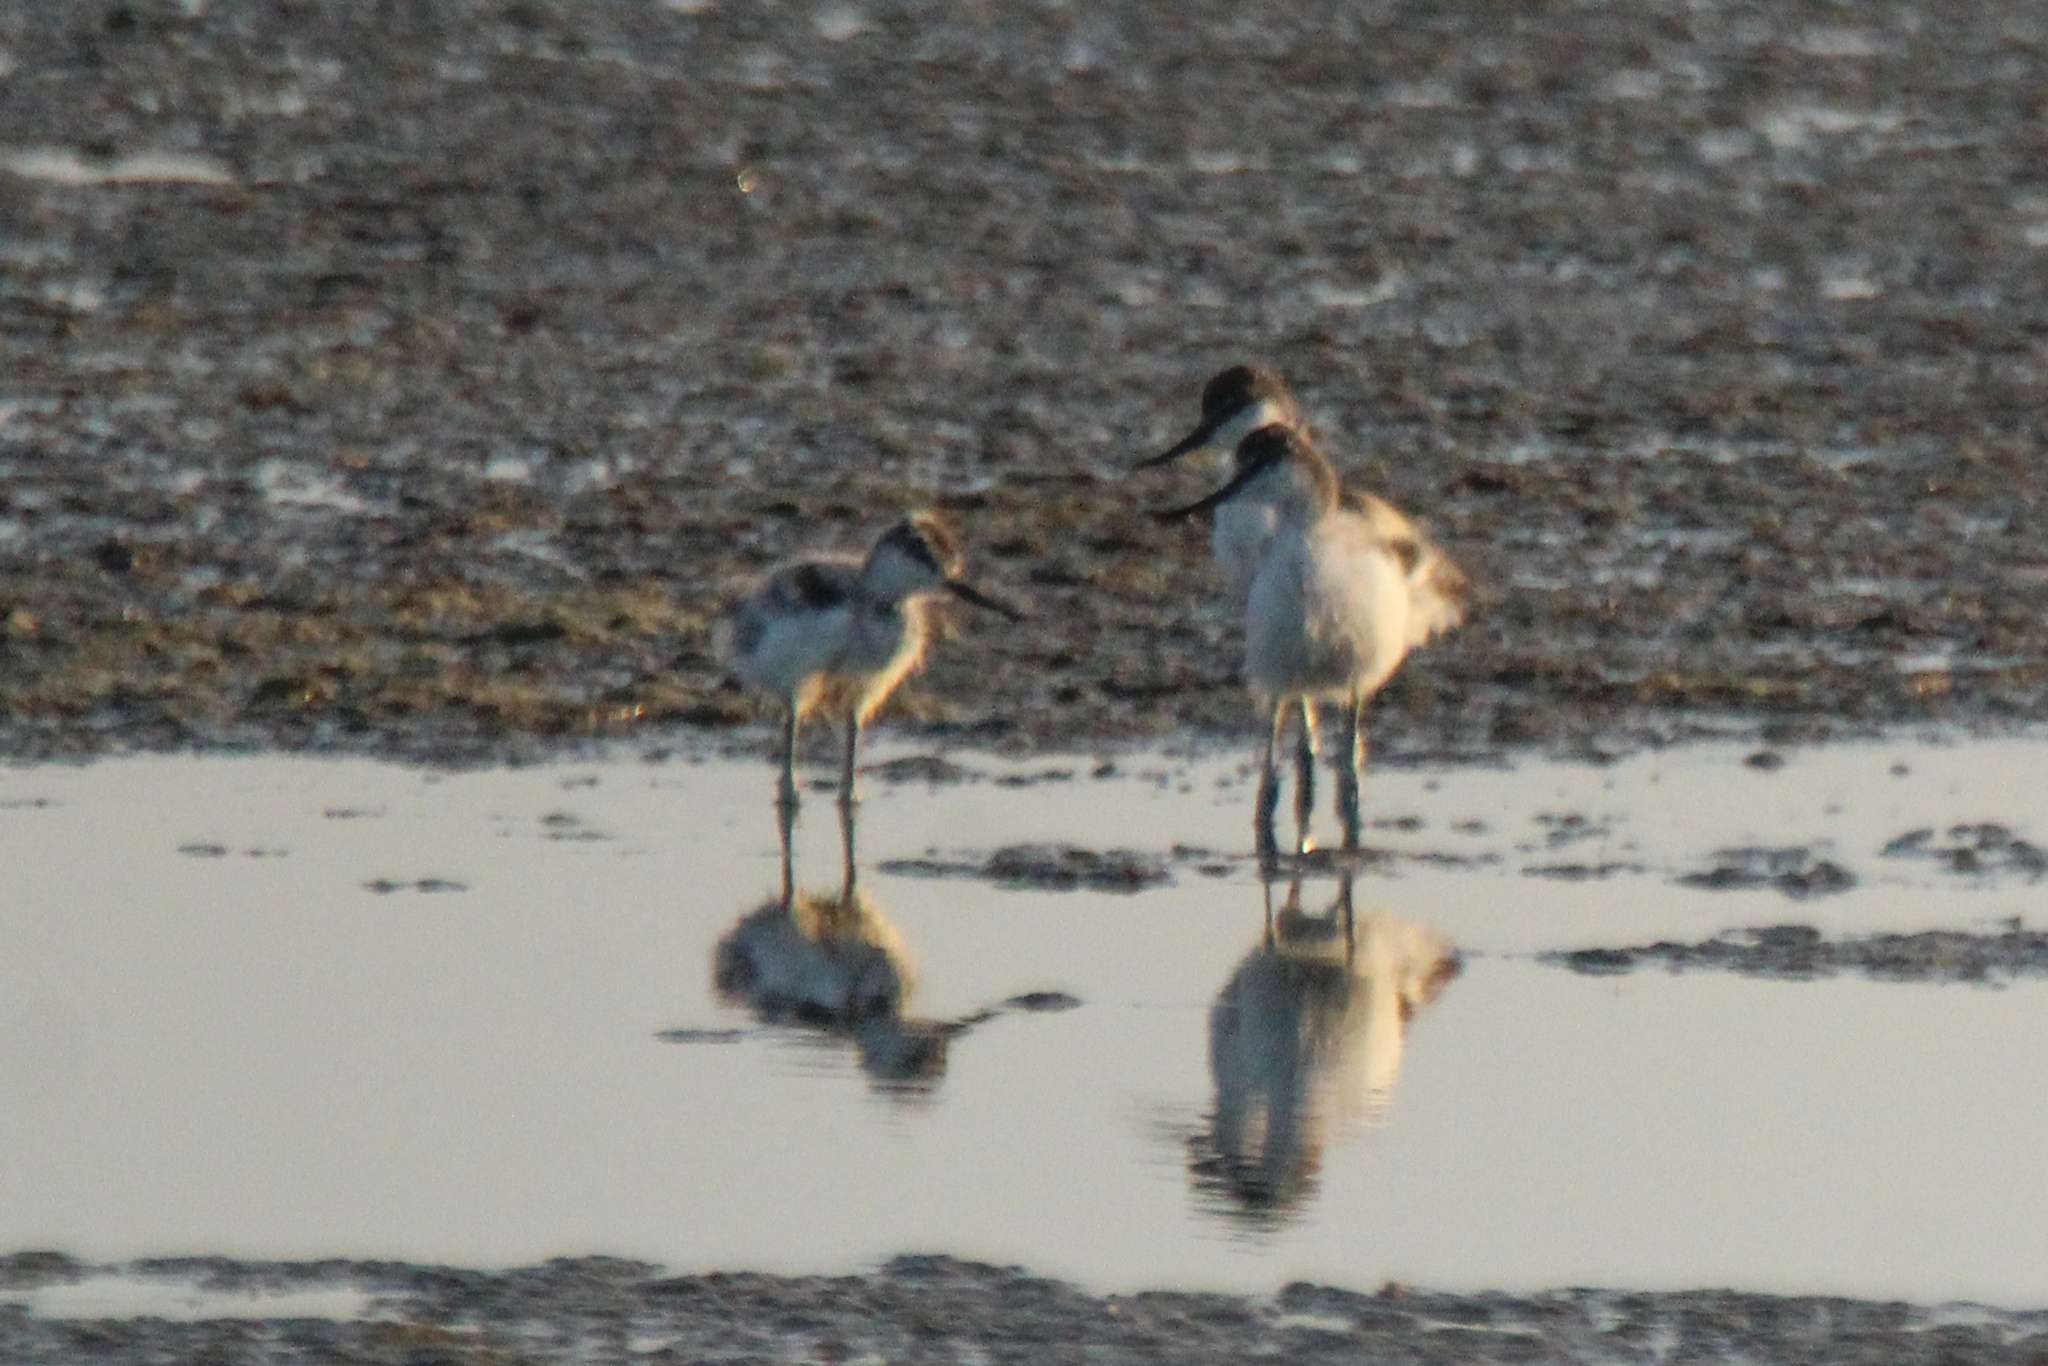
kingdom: Animalia
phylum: Chordata
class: Aves
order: Charadriiformes
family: Recurvirostridae
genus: Recurvirostra
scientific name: Recurvirostra avosetta
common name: Pied avocet
